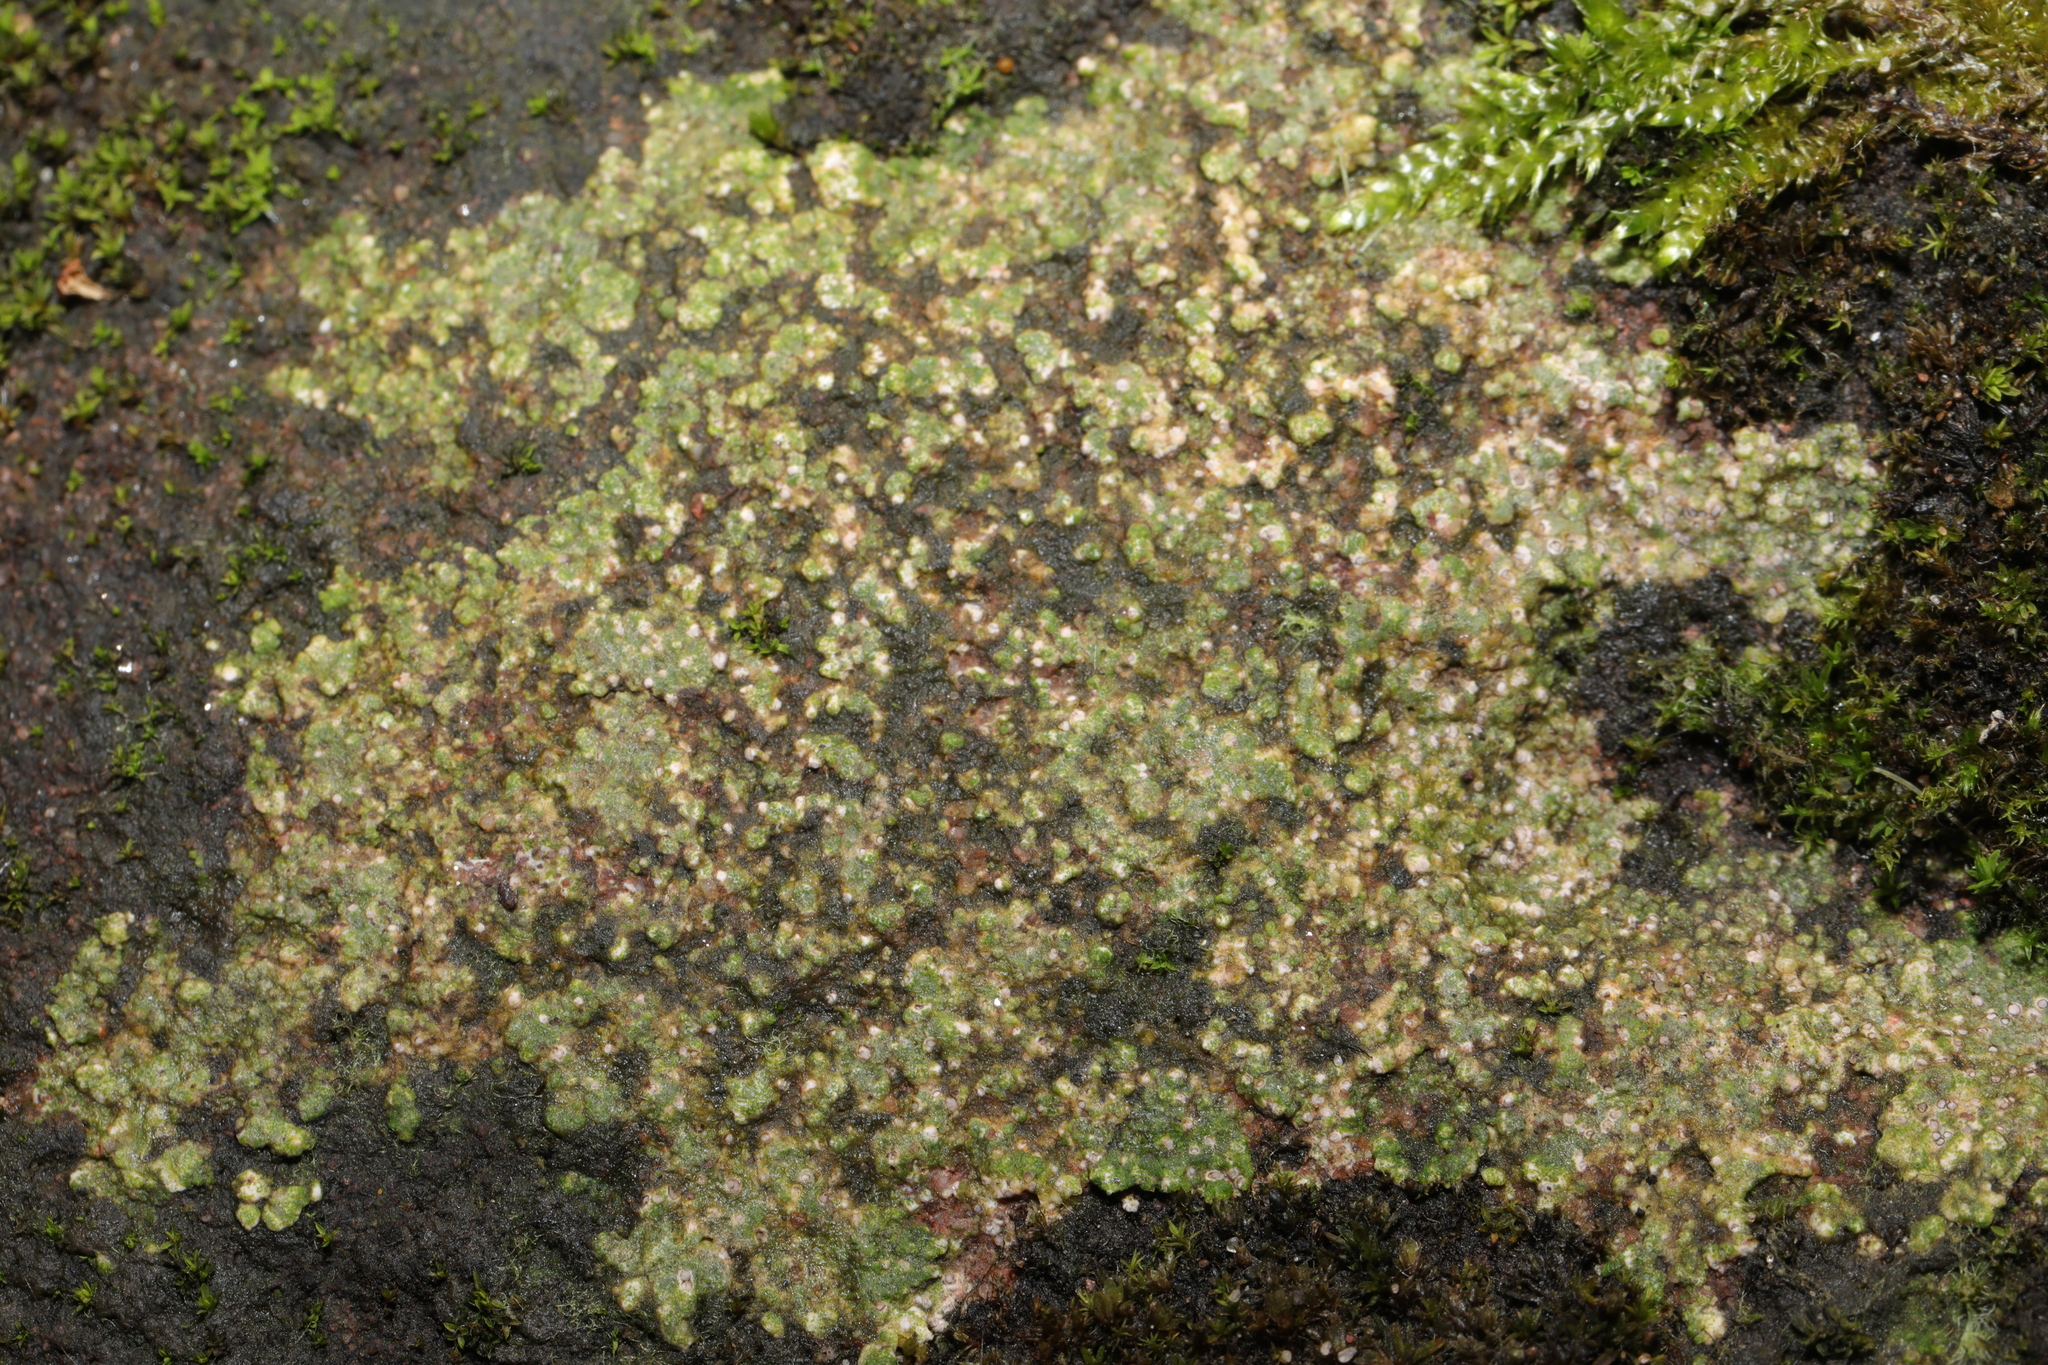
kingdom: Fungi
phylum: Ascomycota
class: Lecanoromycetes
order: Pertusariales
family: Megasporaceae
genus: Circinaria
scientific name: Circinaria contorta
